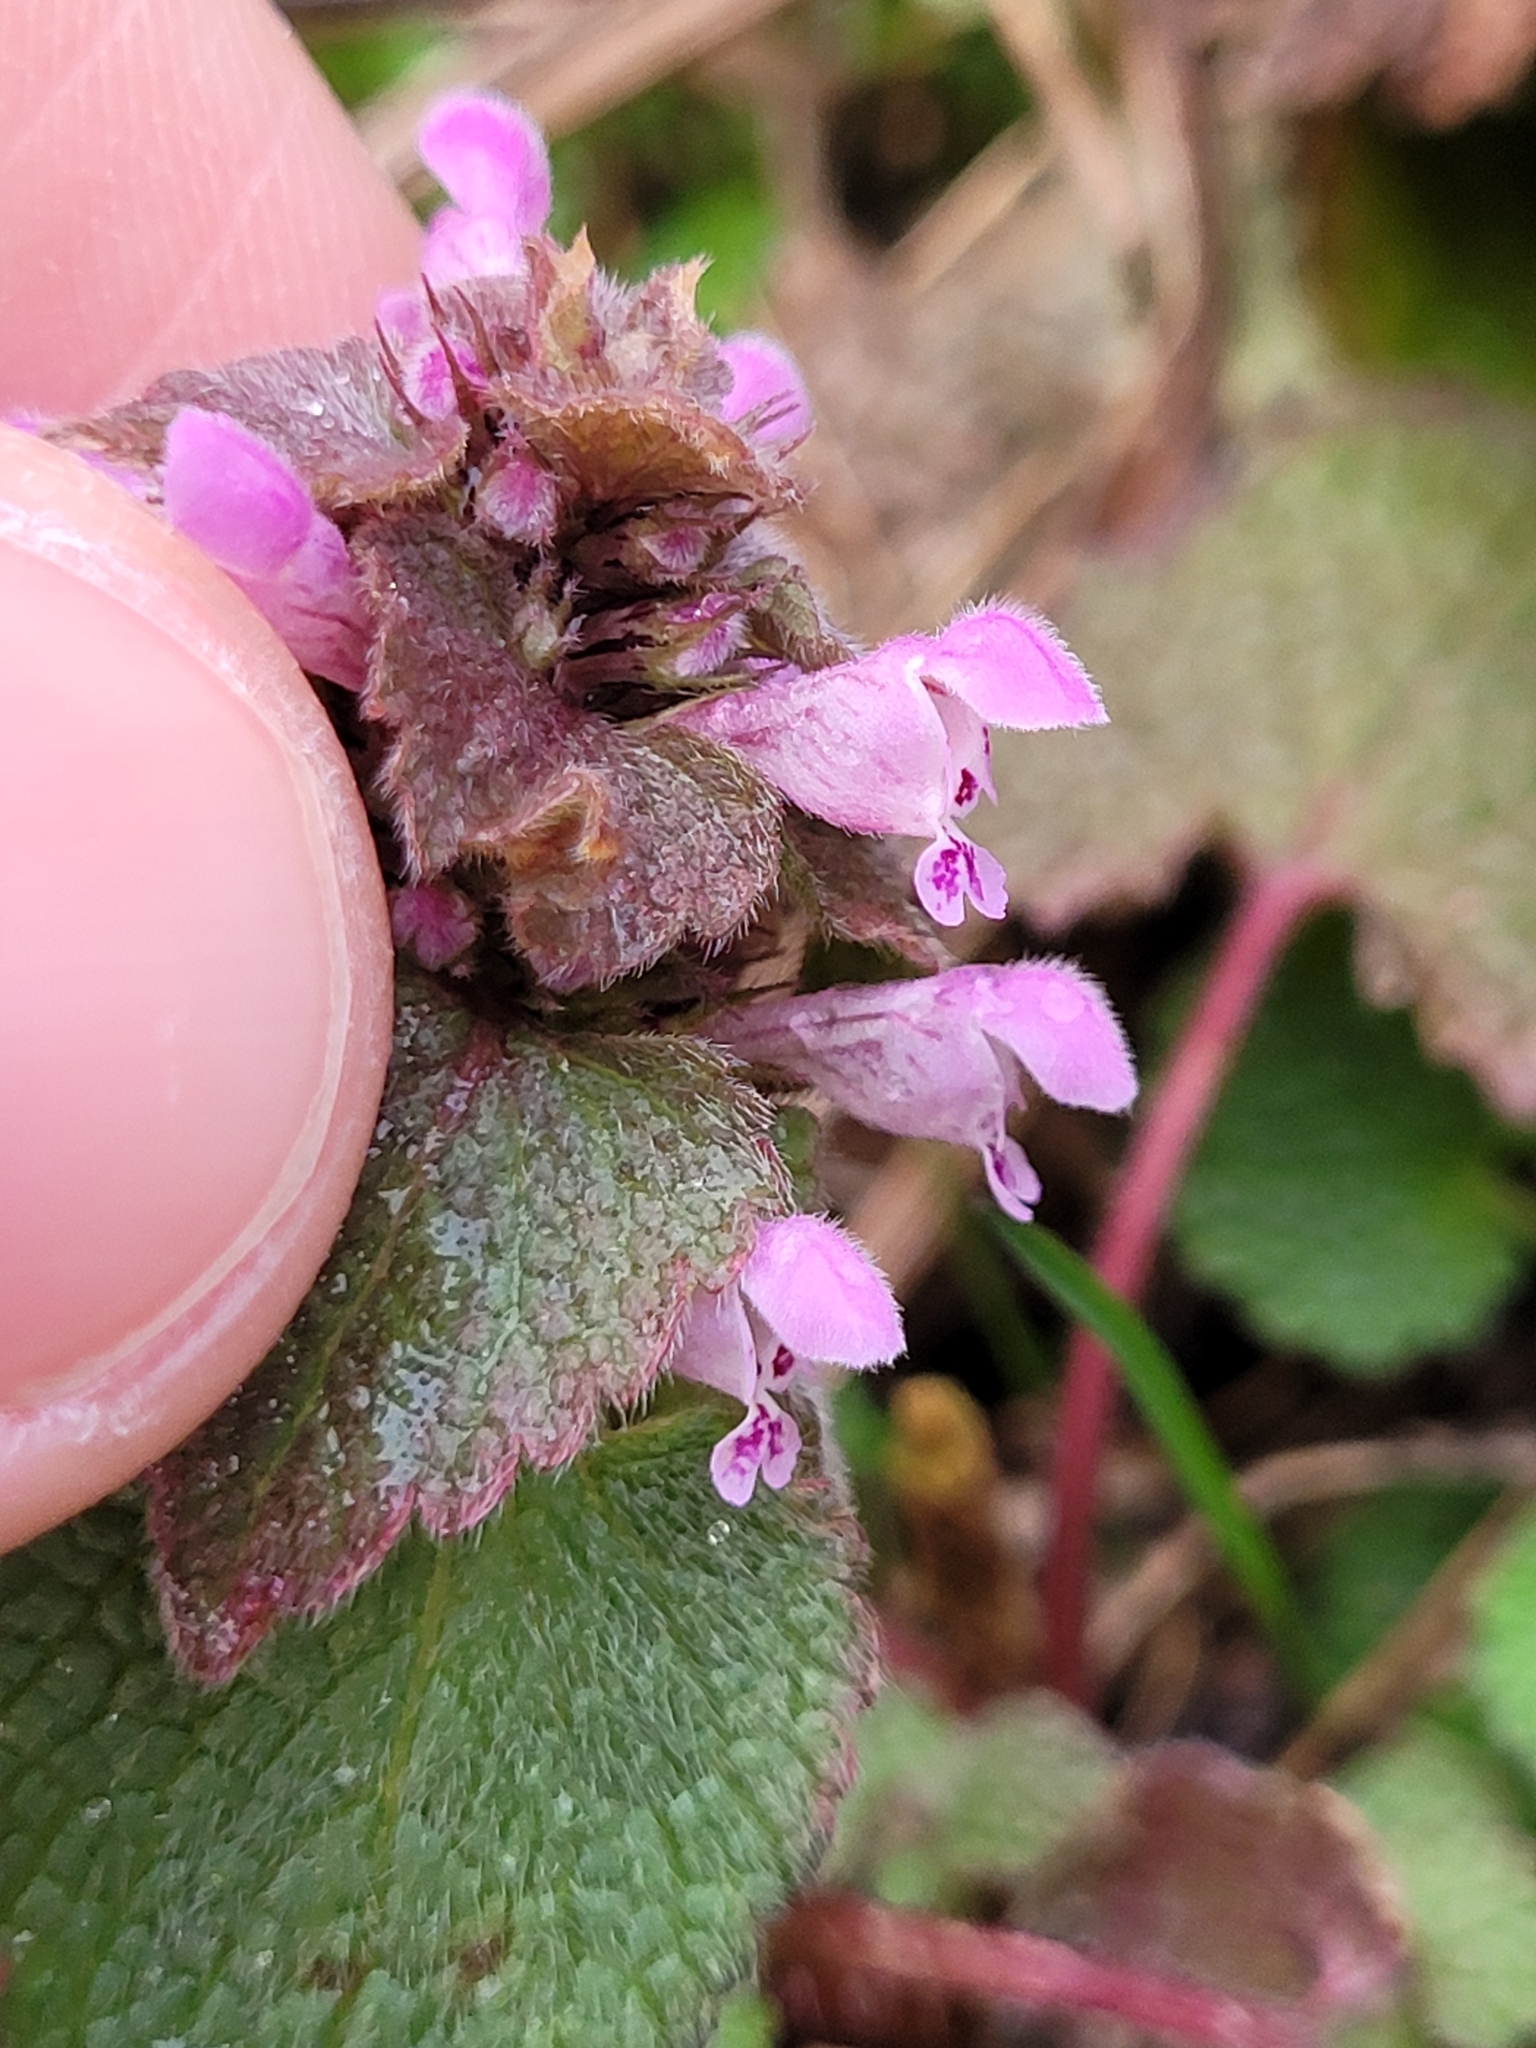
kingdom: Plantae
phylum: Tracheophyta
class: Magnoliopsida
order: Lamiales
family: Lamiaceae
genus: Lamium
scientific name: Lamium purpureum
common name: Red dead-nettle
